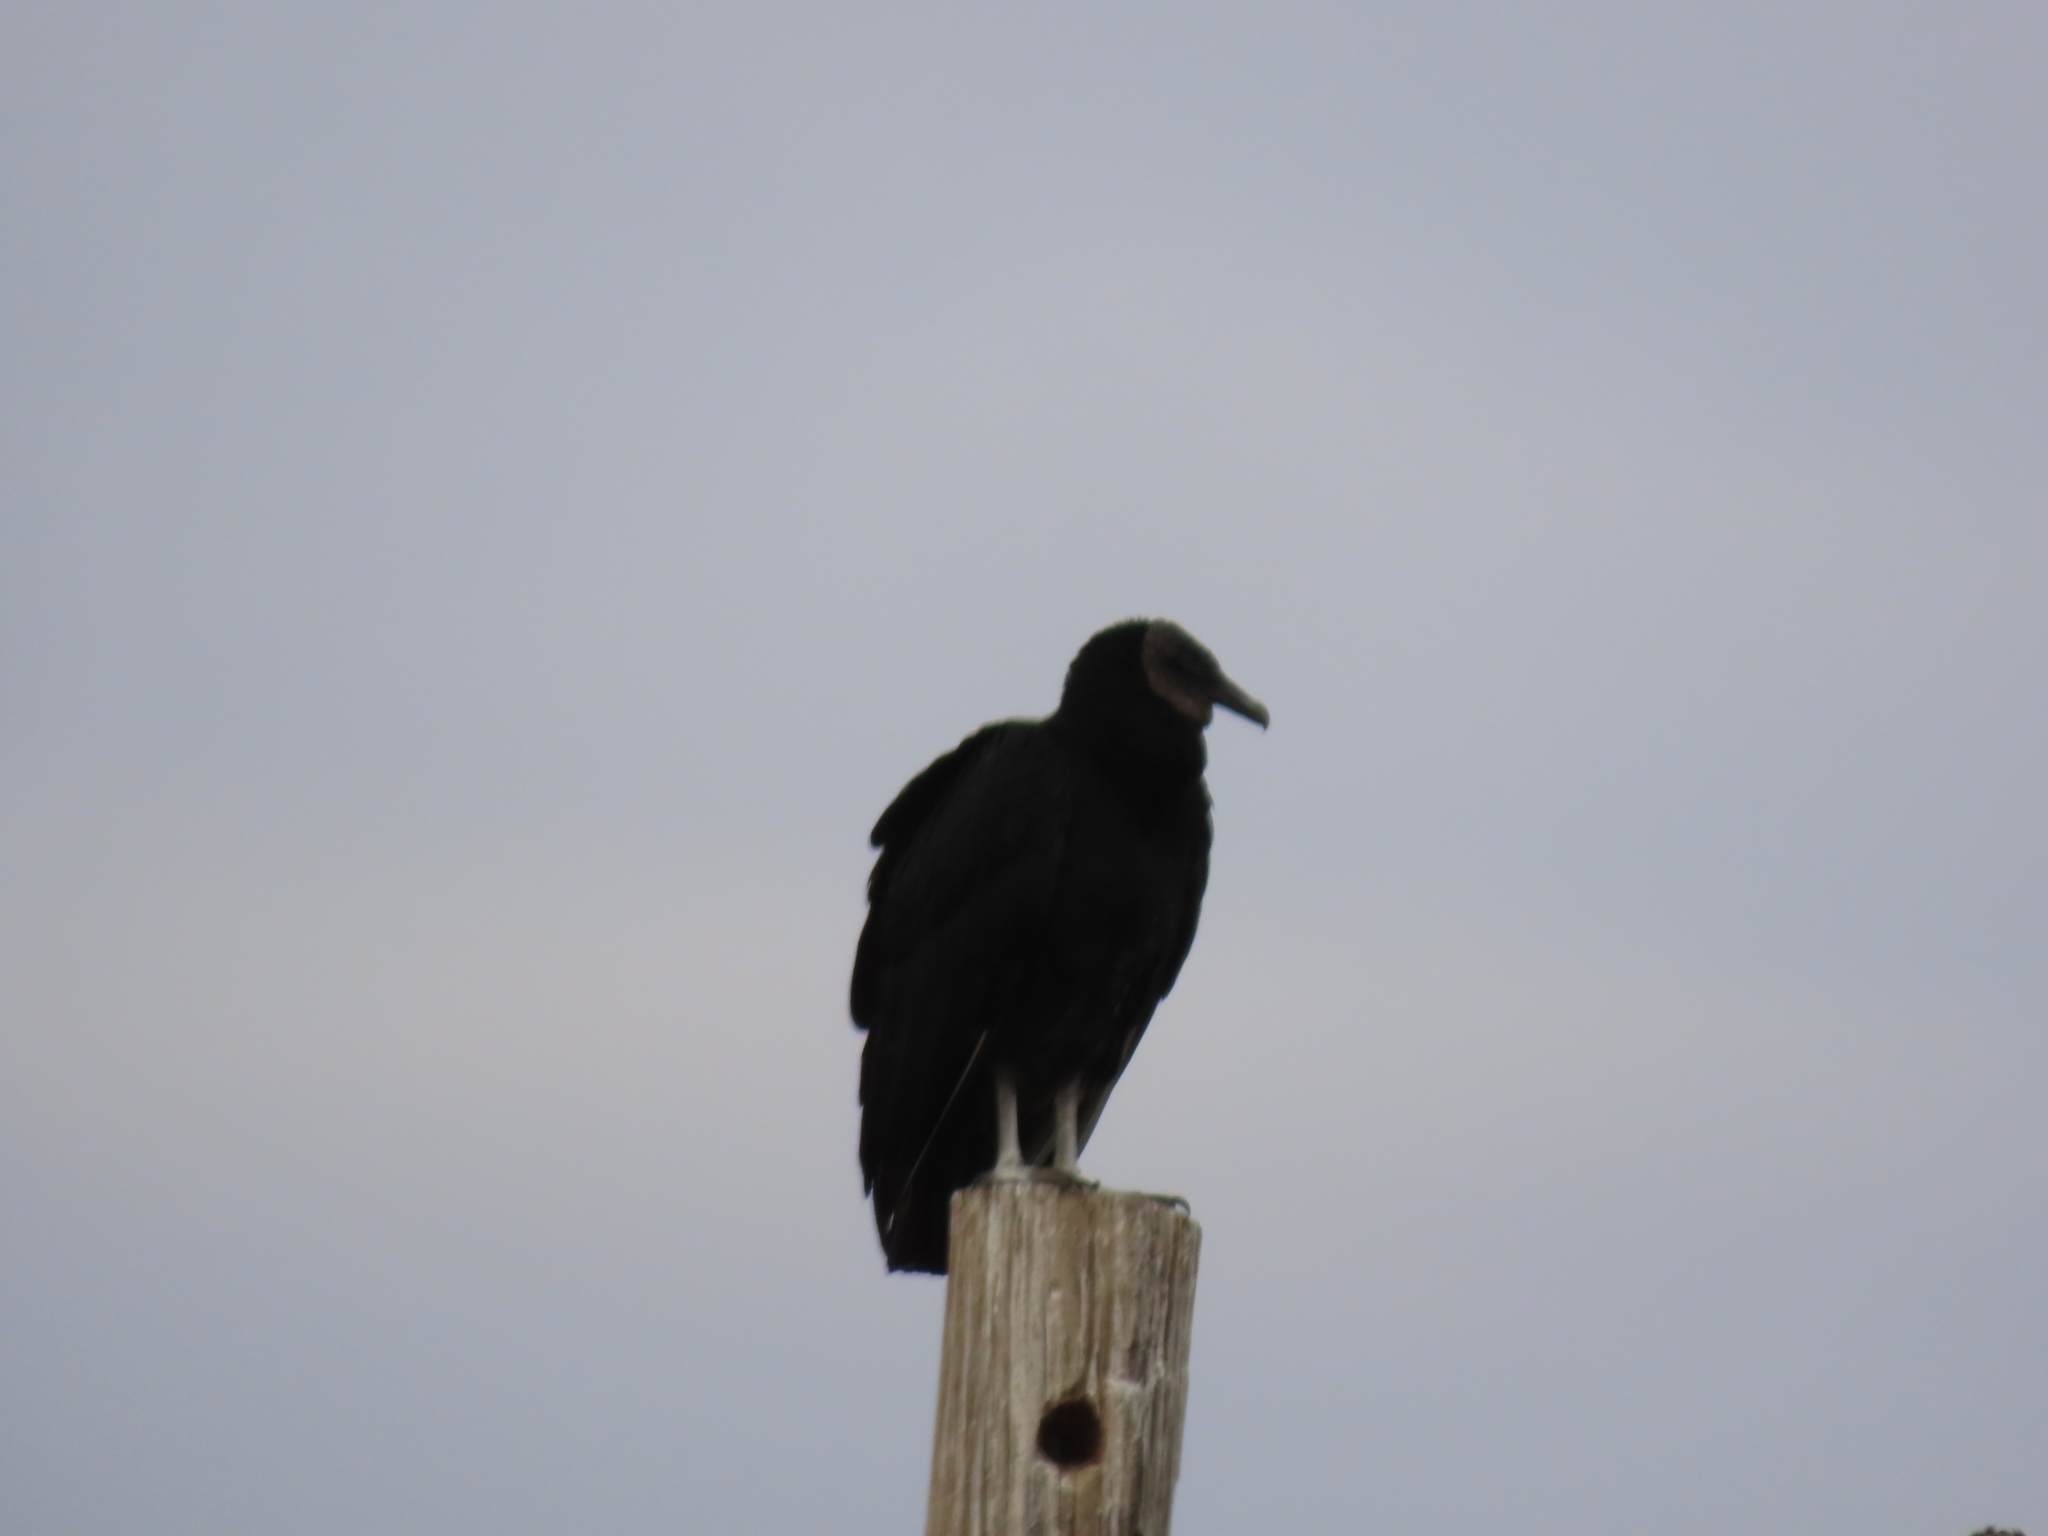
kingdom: Animalia
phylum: Chordata
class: Aves
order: Accipitriformes
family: Cathartidae
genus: Coragyps
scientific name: Coragyps atratus
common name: Black vulture
